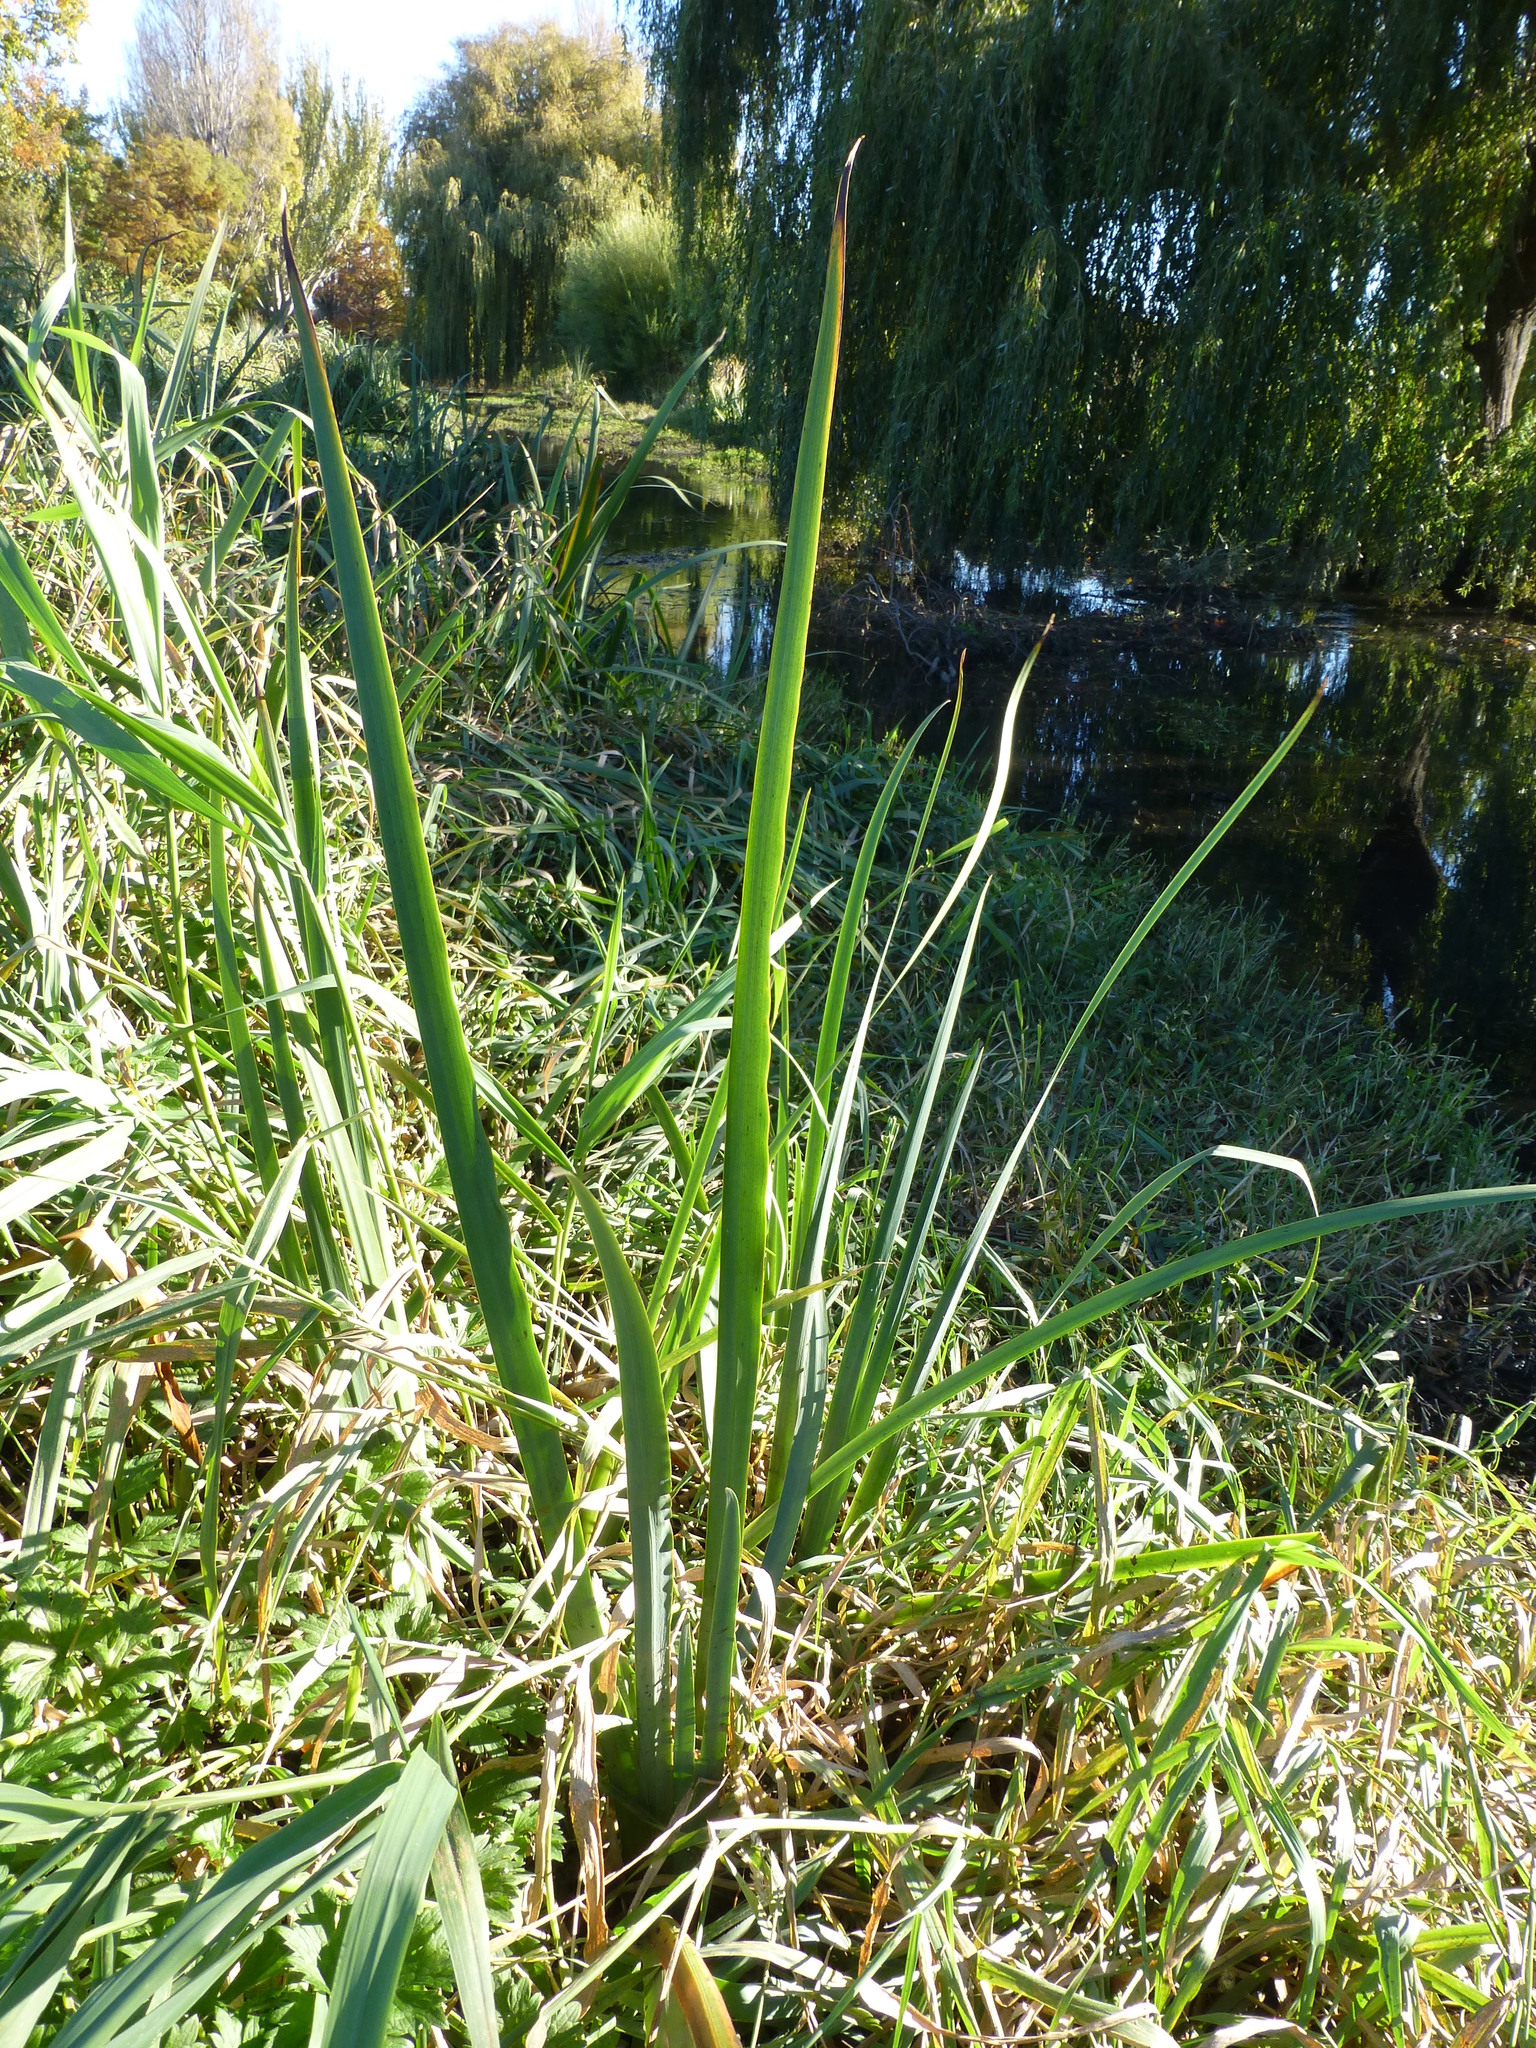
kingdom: Plantae
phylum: Tracheophyta
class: Liliopsida
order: Asparagales
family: Iridaceae
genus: Iris
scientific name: Iris pseudacorus
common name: Yellow flag
